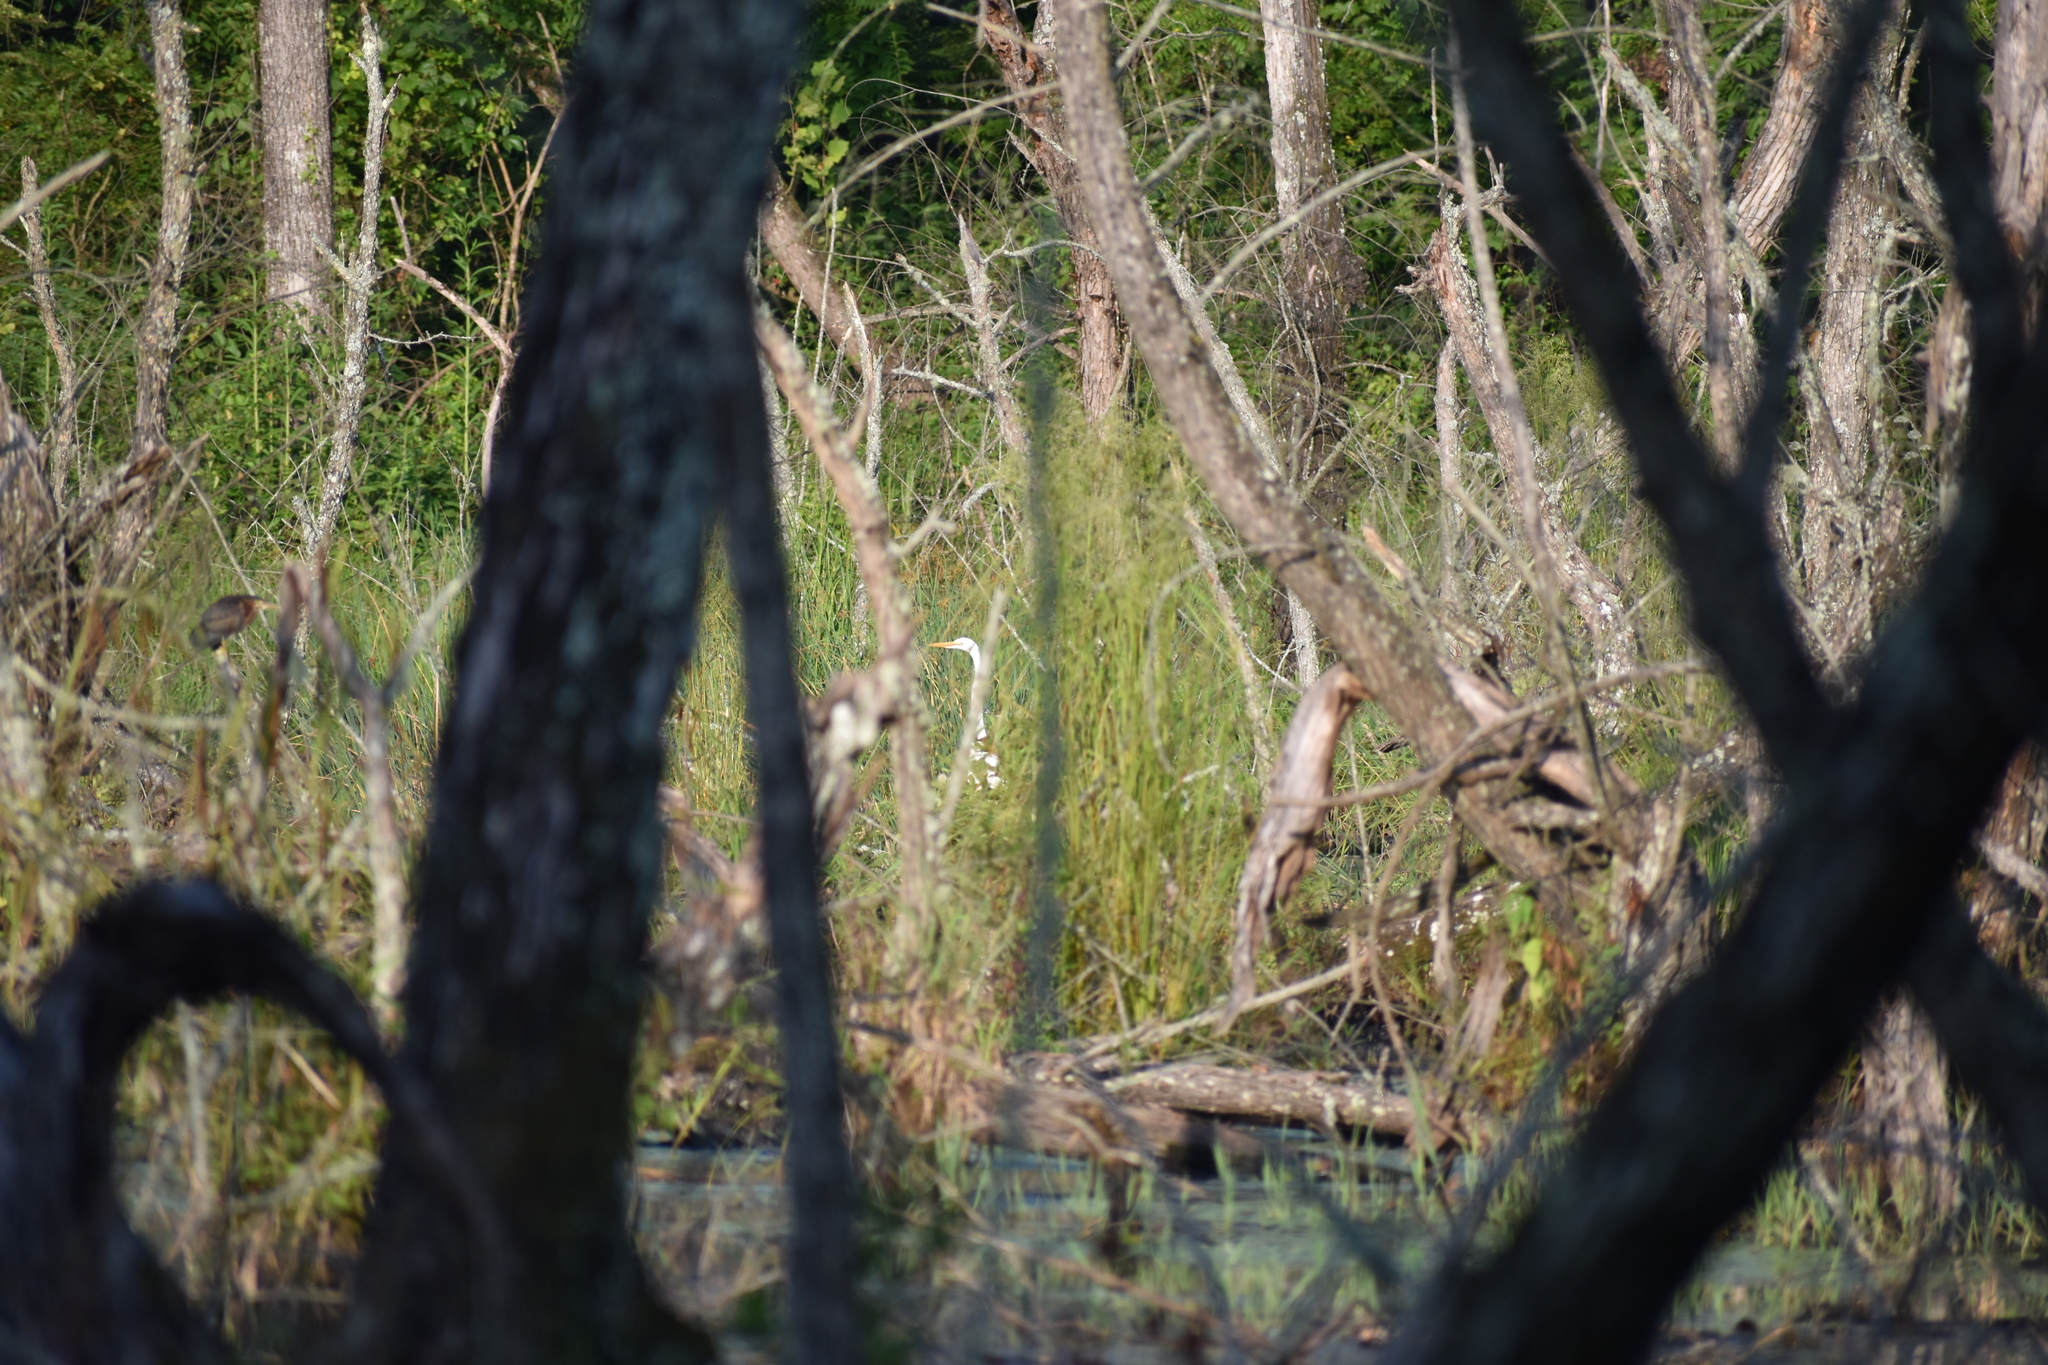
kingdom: Animalia
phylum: Chordata
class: Aves
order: Pelecaniformes
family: Ardeidae
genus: Ardea
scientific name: Ardea alba
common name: Great egret
